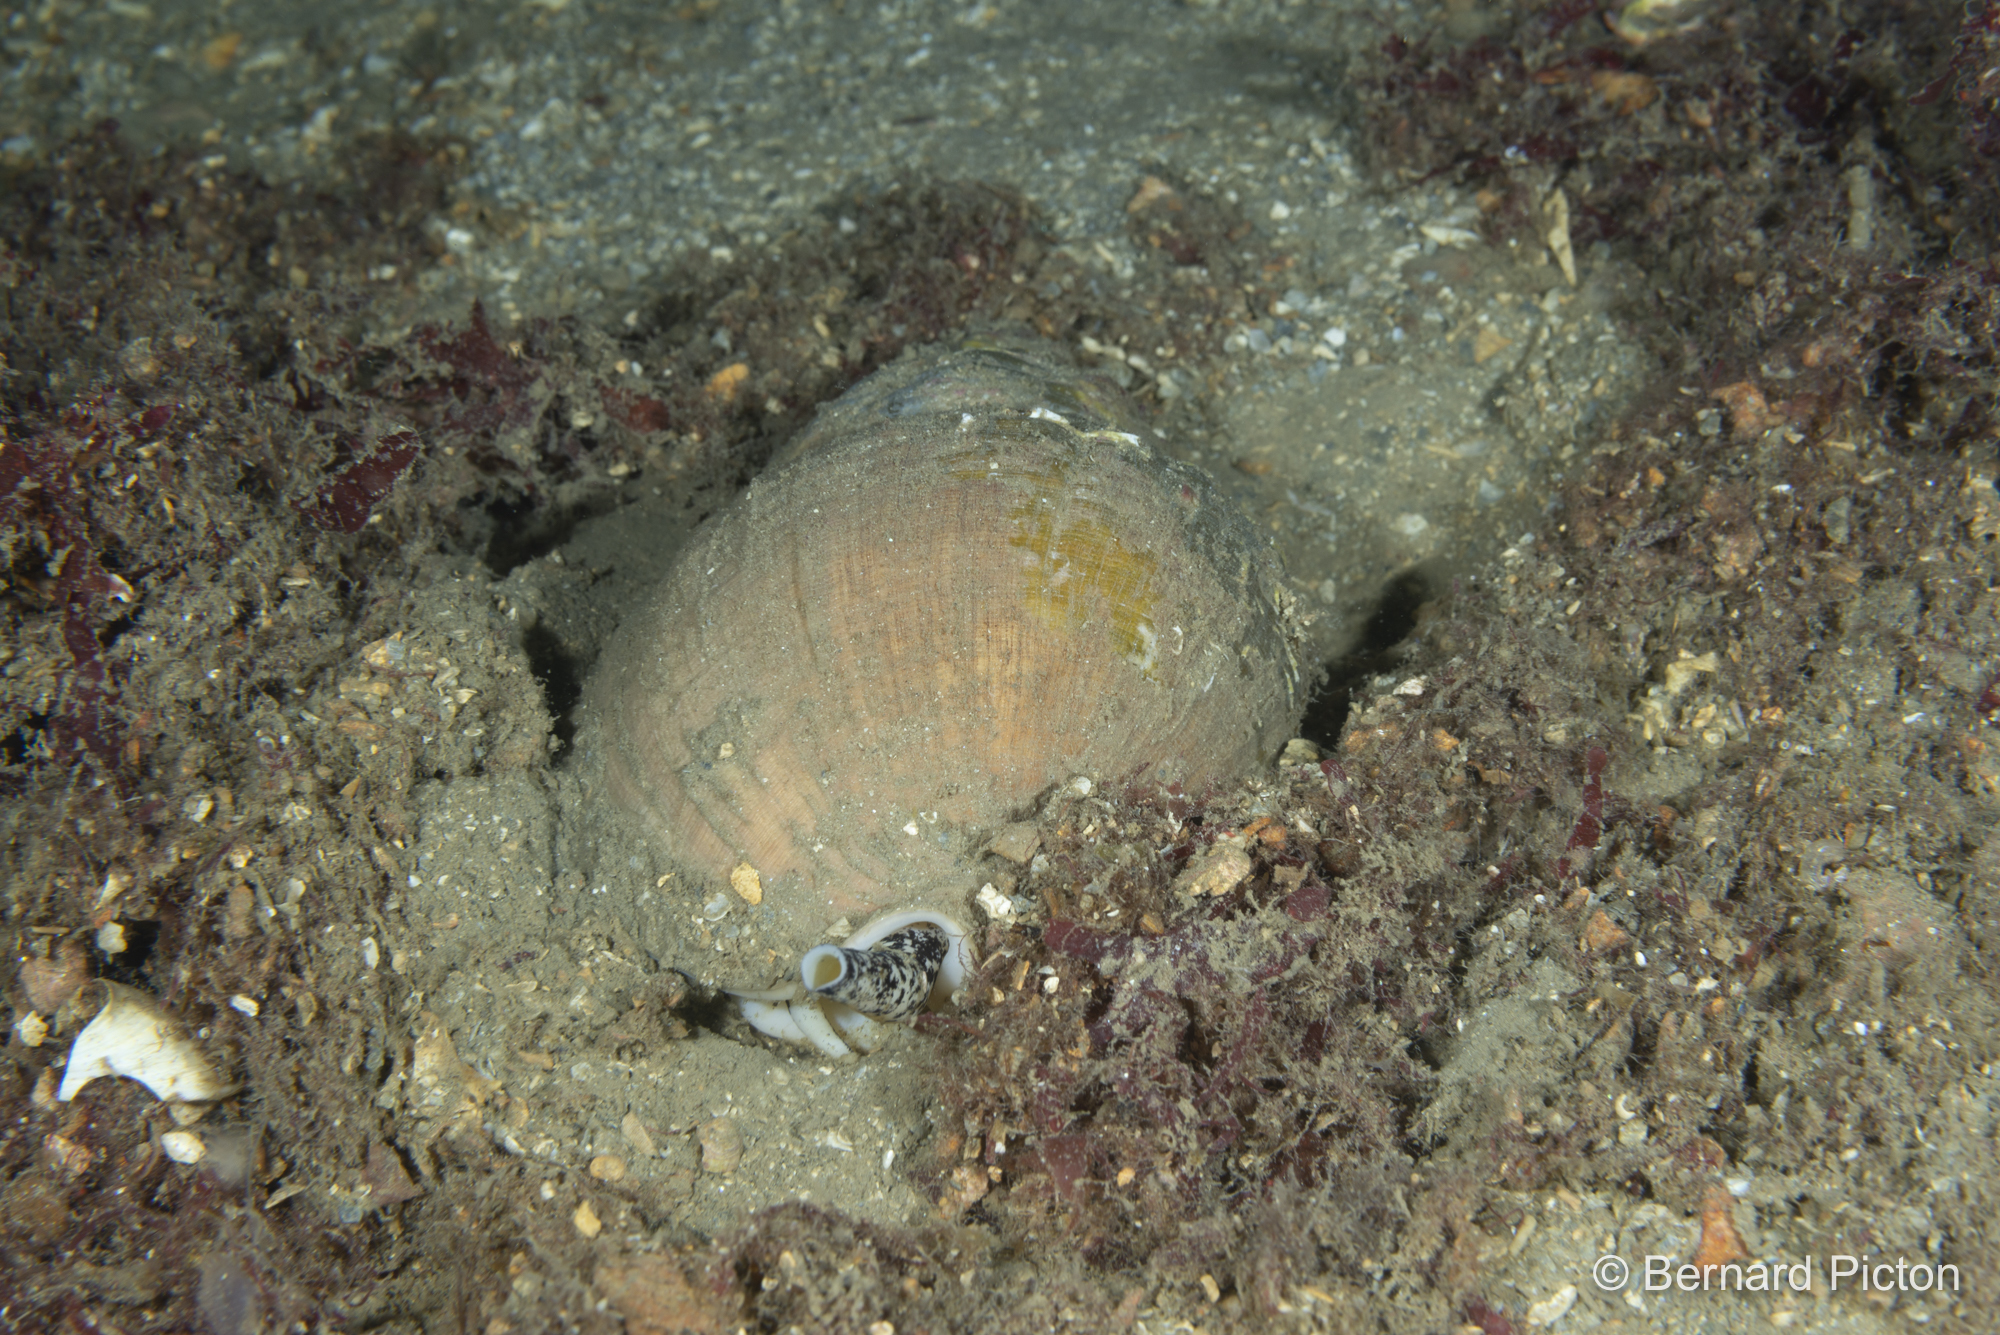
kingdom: Animalia
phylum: Mollusca
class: Gastropoda
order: Neogastropoda
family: Buccinidae
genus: Buccinum
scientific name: Buccinum undatum
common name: Common whelk
